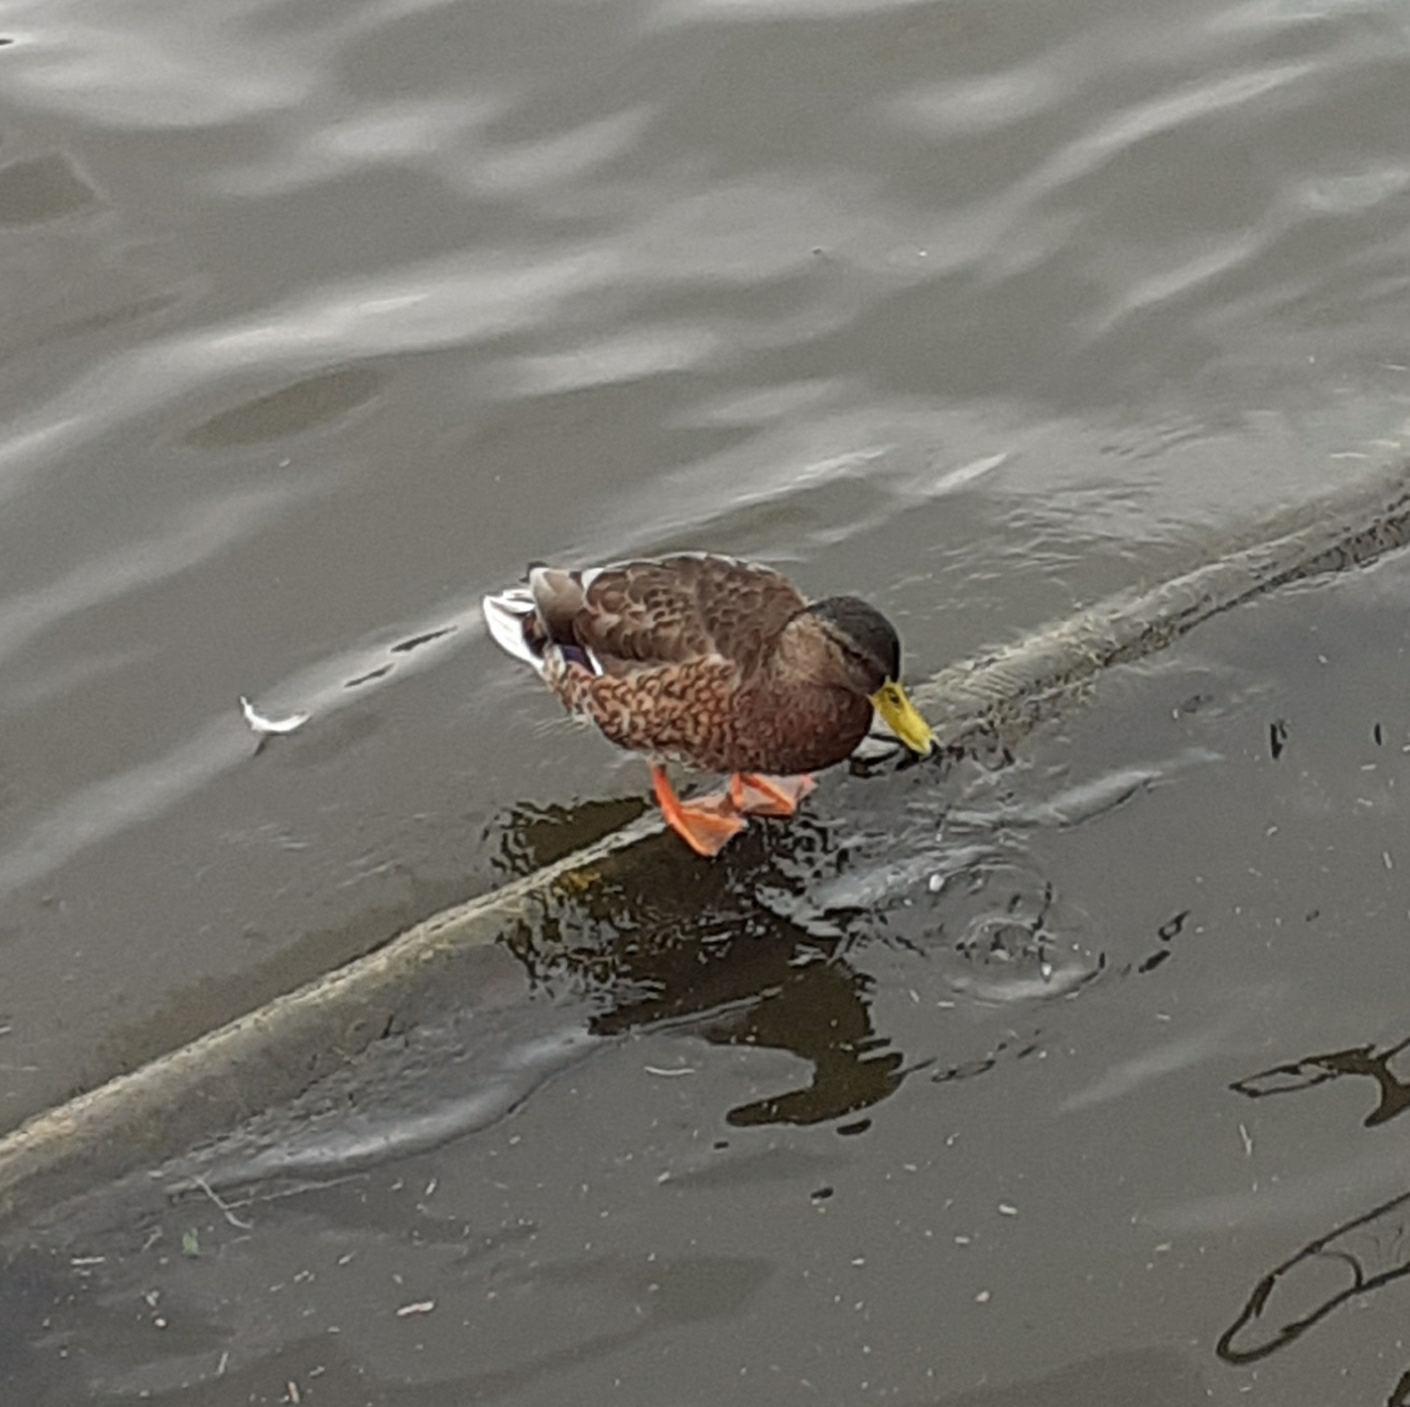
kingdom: Animalia
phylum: Chordata
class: Aves
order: Anseriformes
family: Anatidae
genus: Anas
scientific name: Anas platyrhynchos
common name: Mallard
